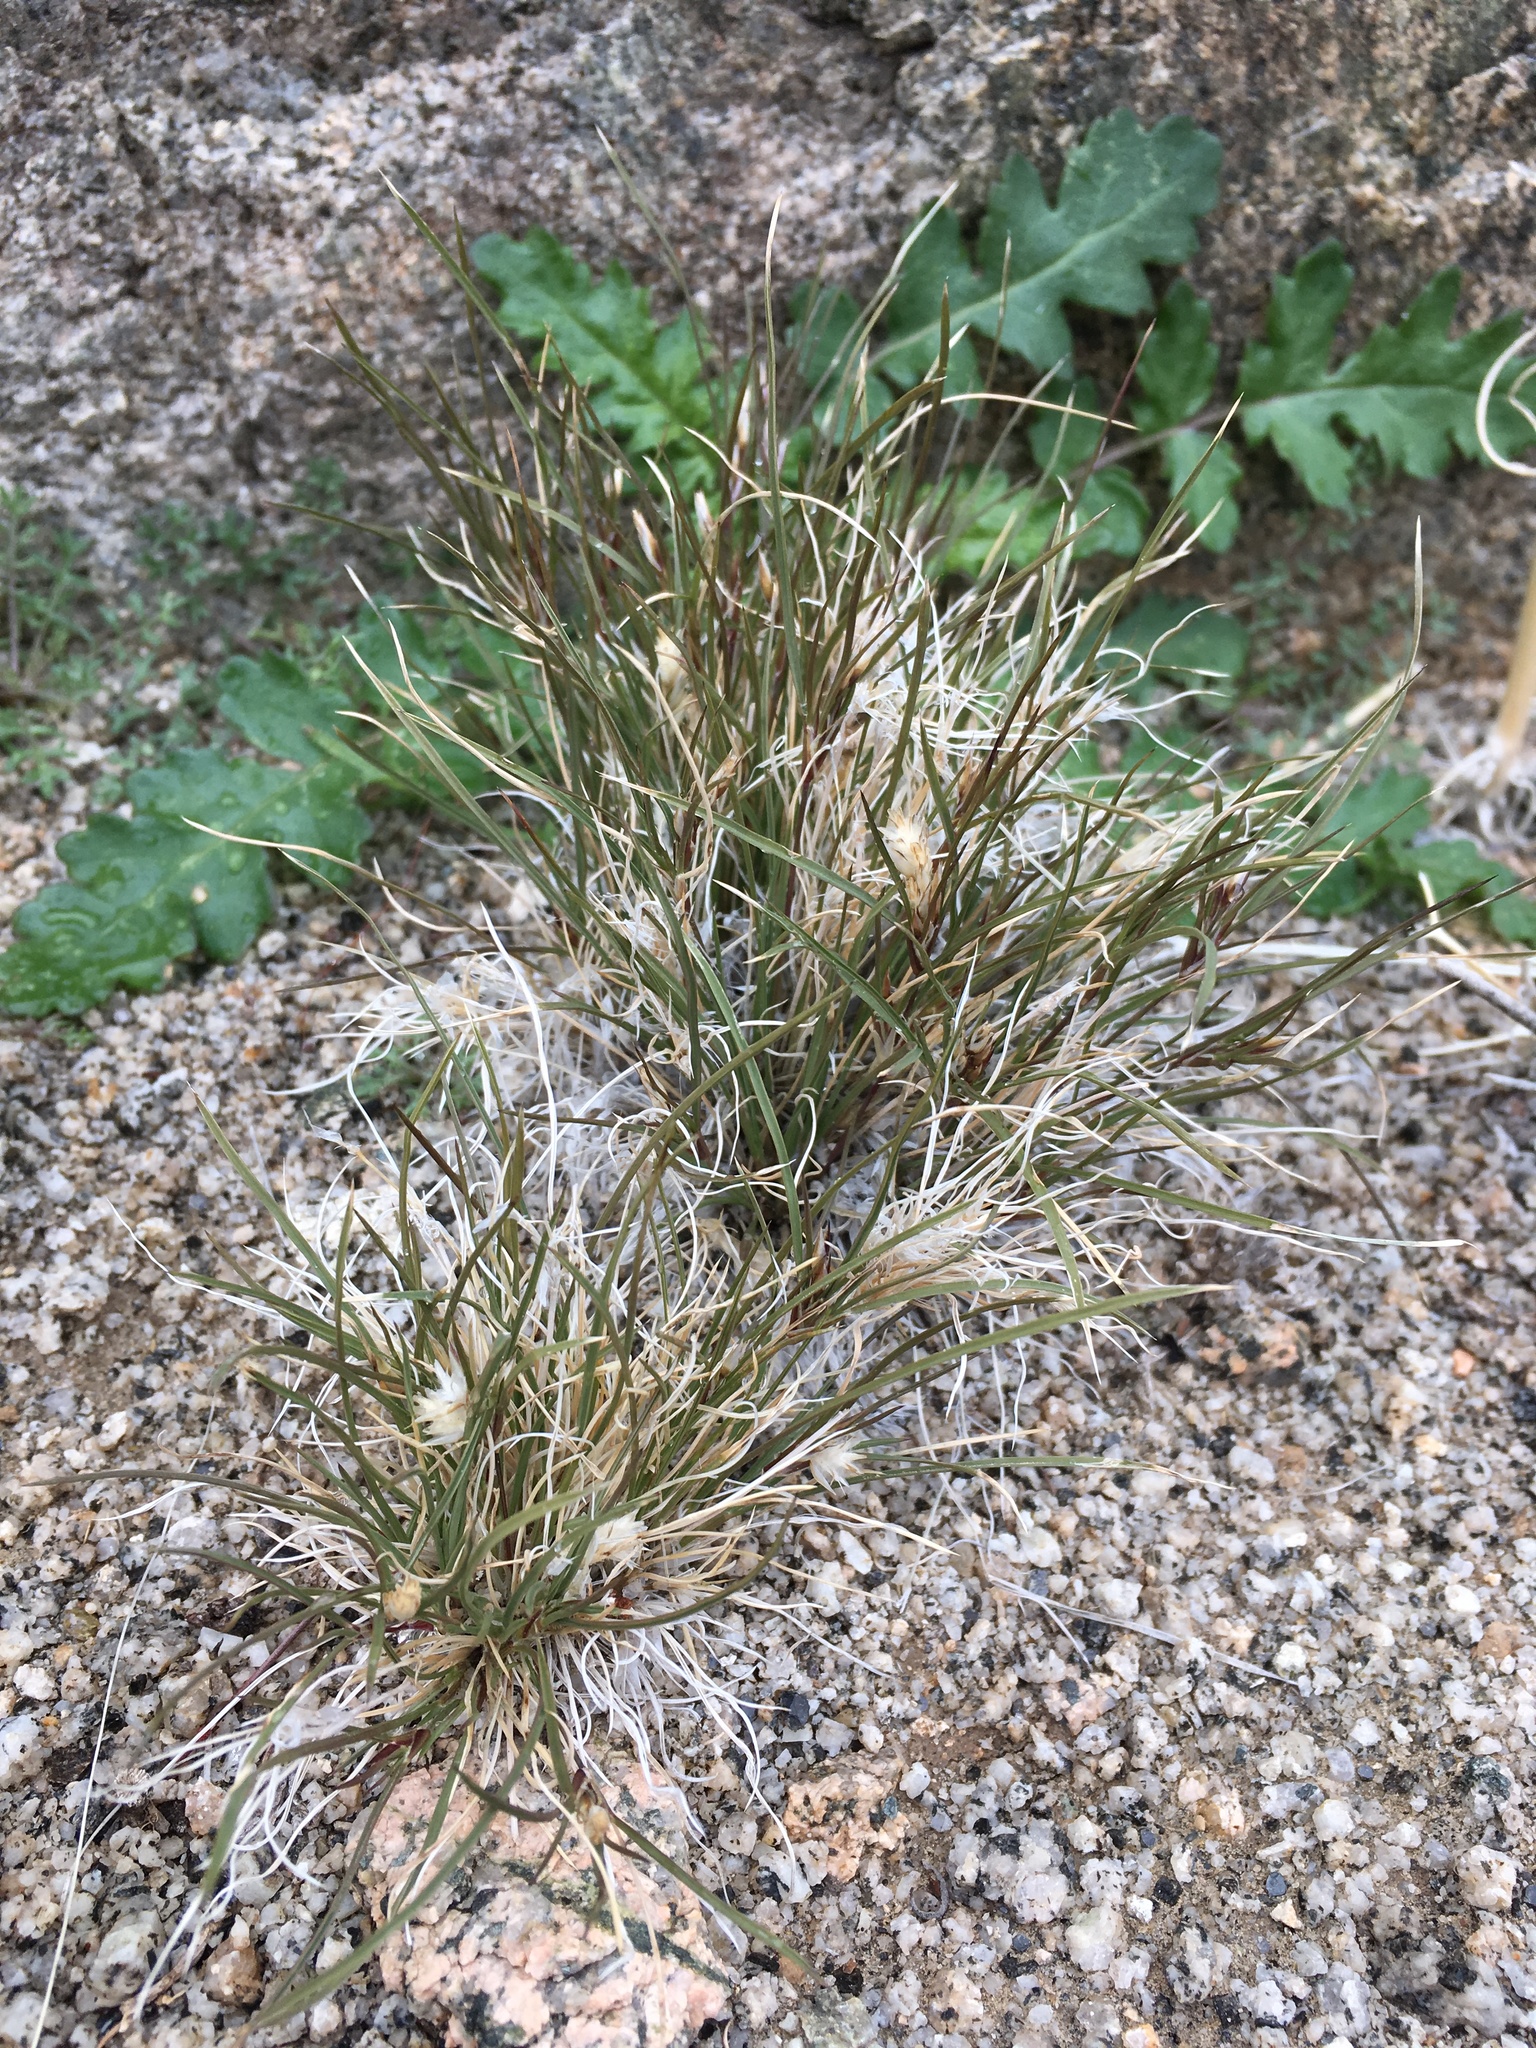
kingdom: Plantae
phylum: Tracheophyta
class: Liliopsida
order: Poales
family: Poaceae
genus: Dasyochloa
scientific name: Dasyochloa pulchella
